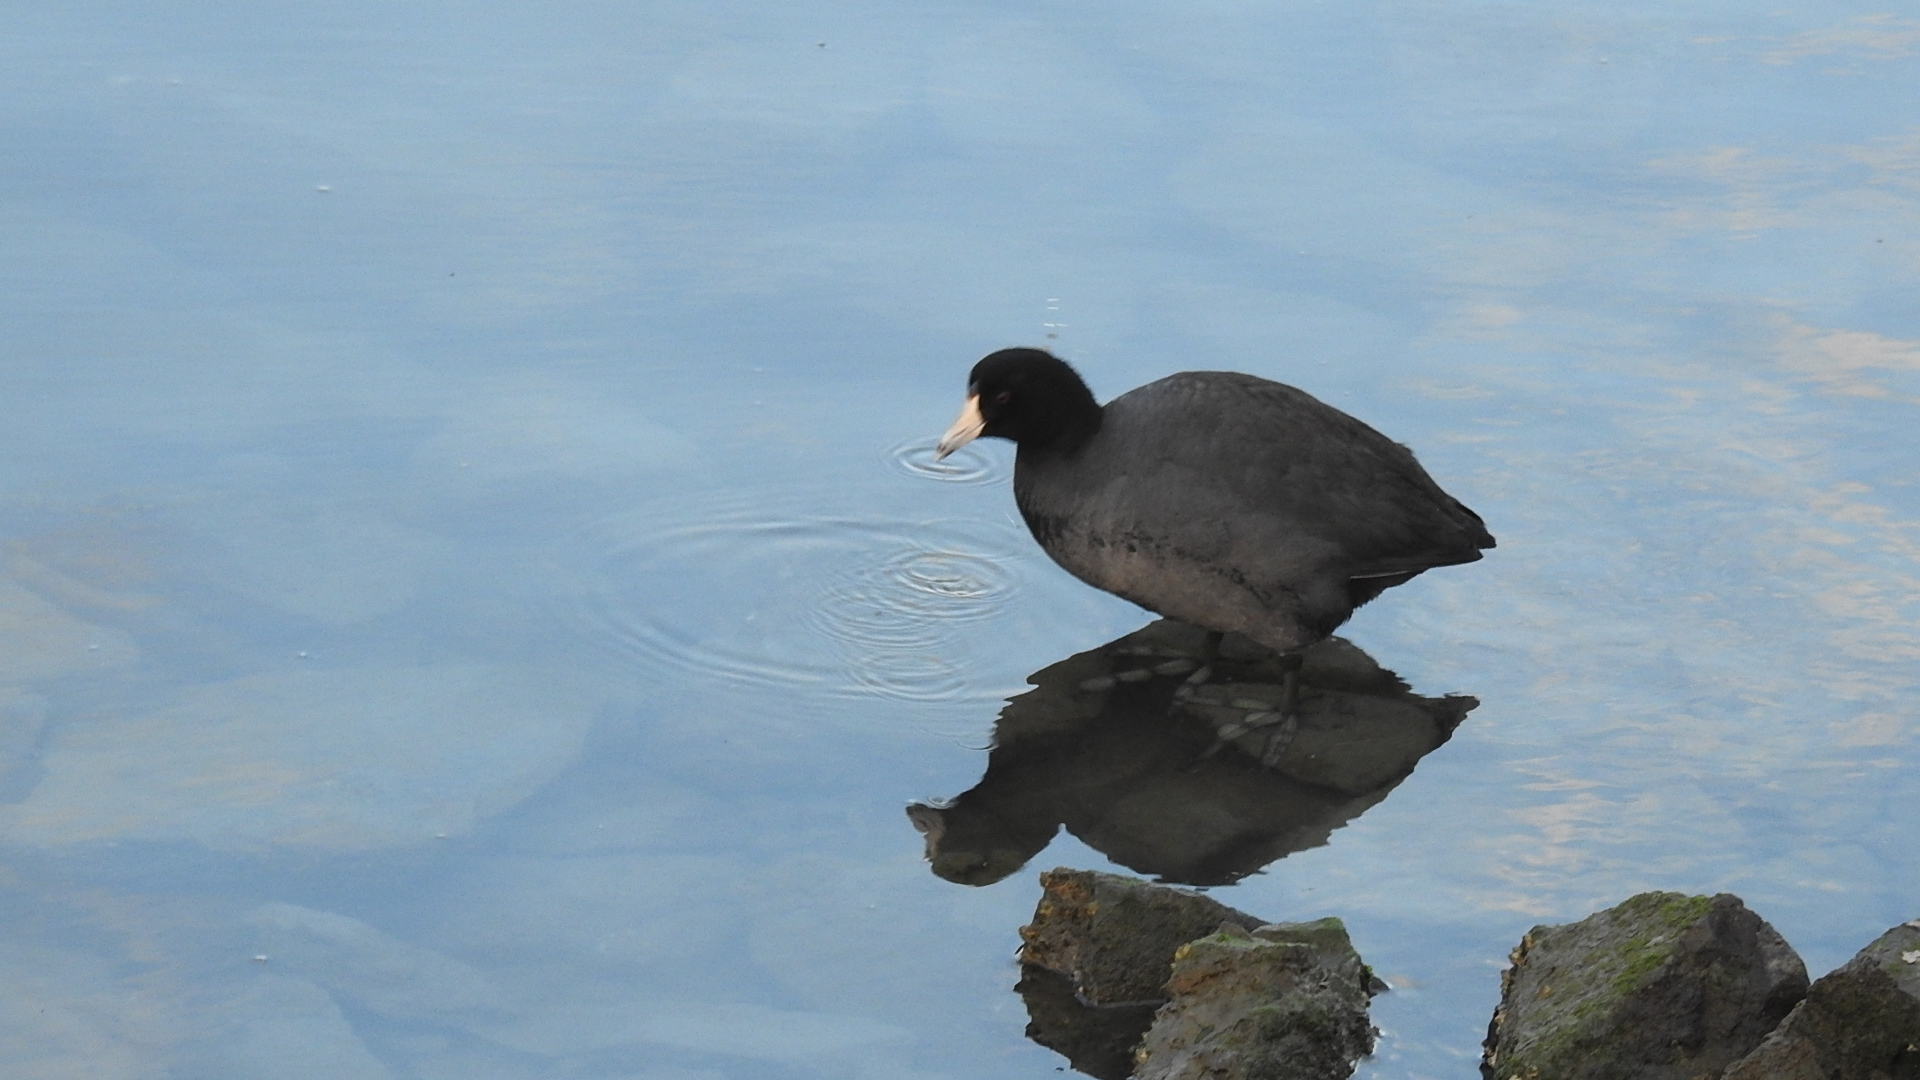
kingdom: Animalia
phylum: Chordata
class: Aves
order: Gruiformes
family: Rallidae
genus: Fulica
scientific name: Fulica americana
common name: American coot
